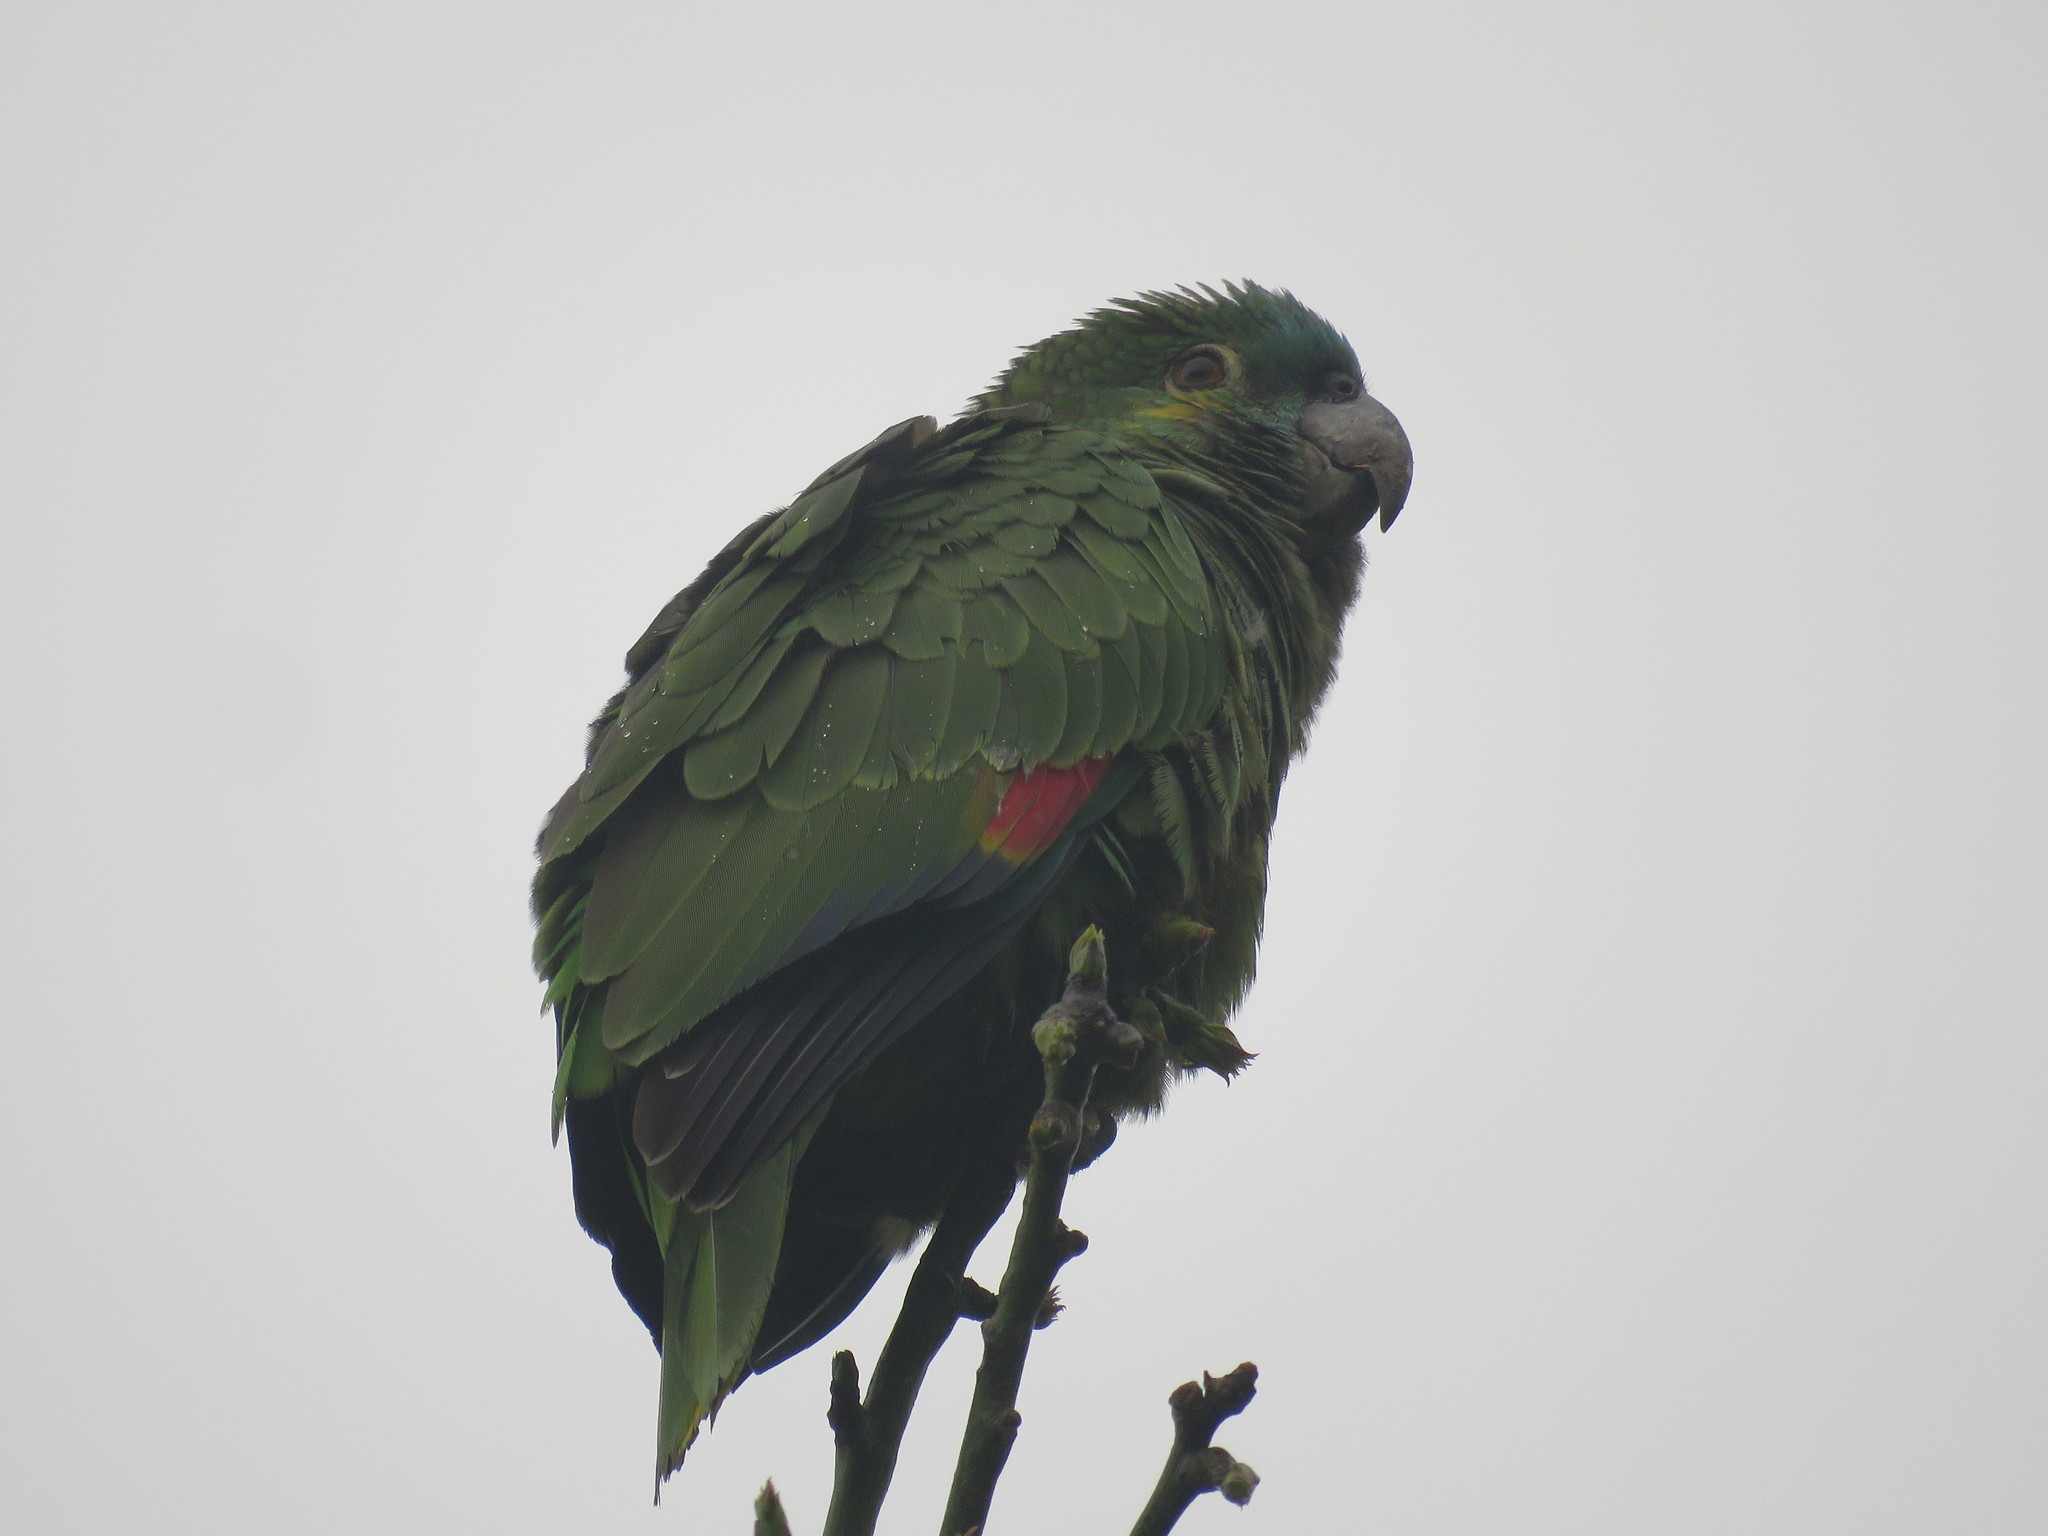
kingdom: Animalia
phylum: Chordata
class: Aves
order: Psittaciformes
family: Psittacidae
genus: Amazona
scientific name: Amazona aestiva
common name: Turquoise-fronted amazon
